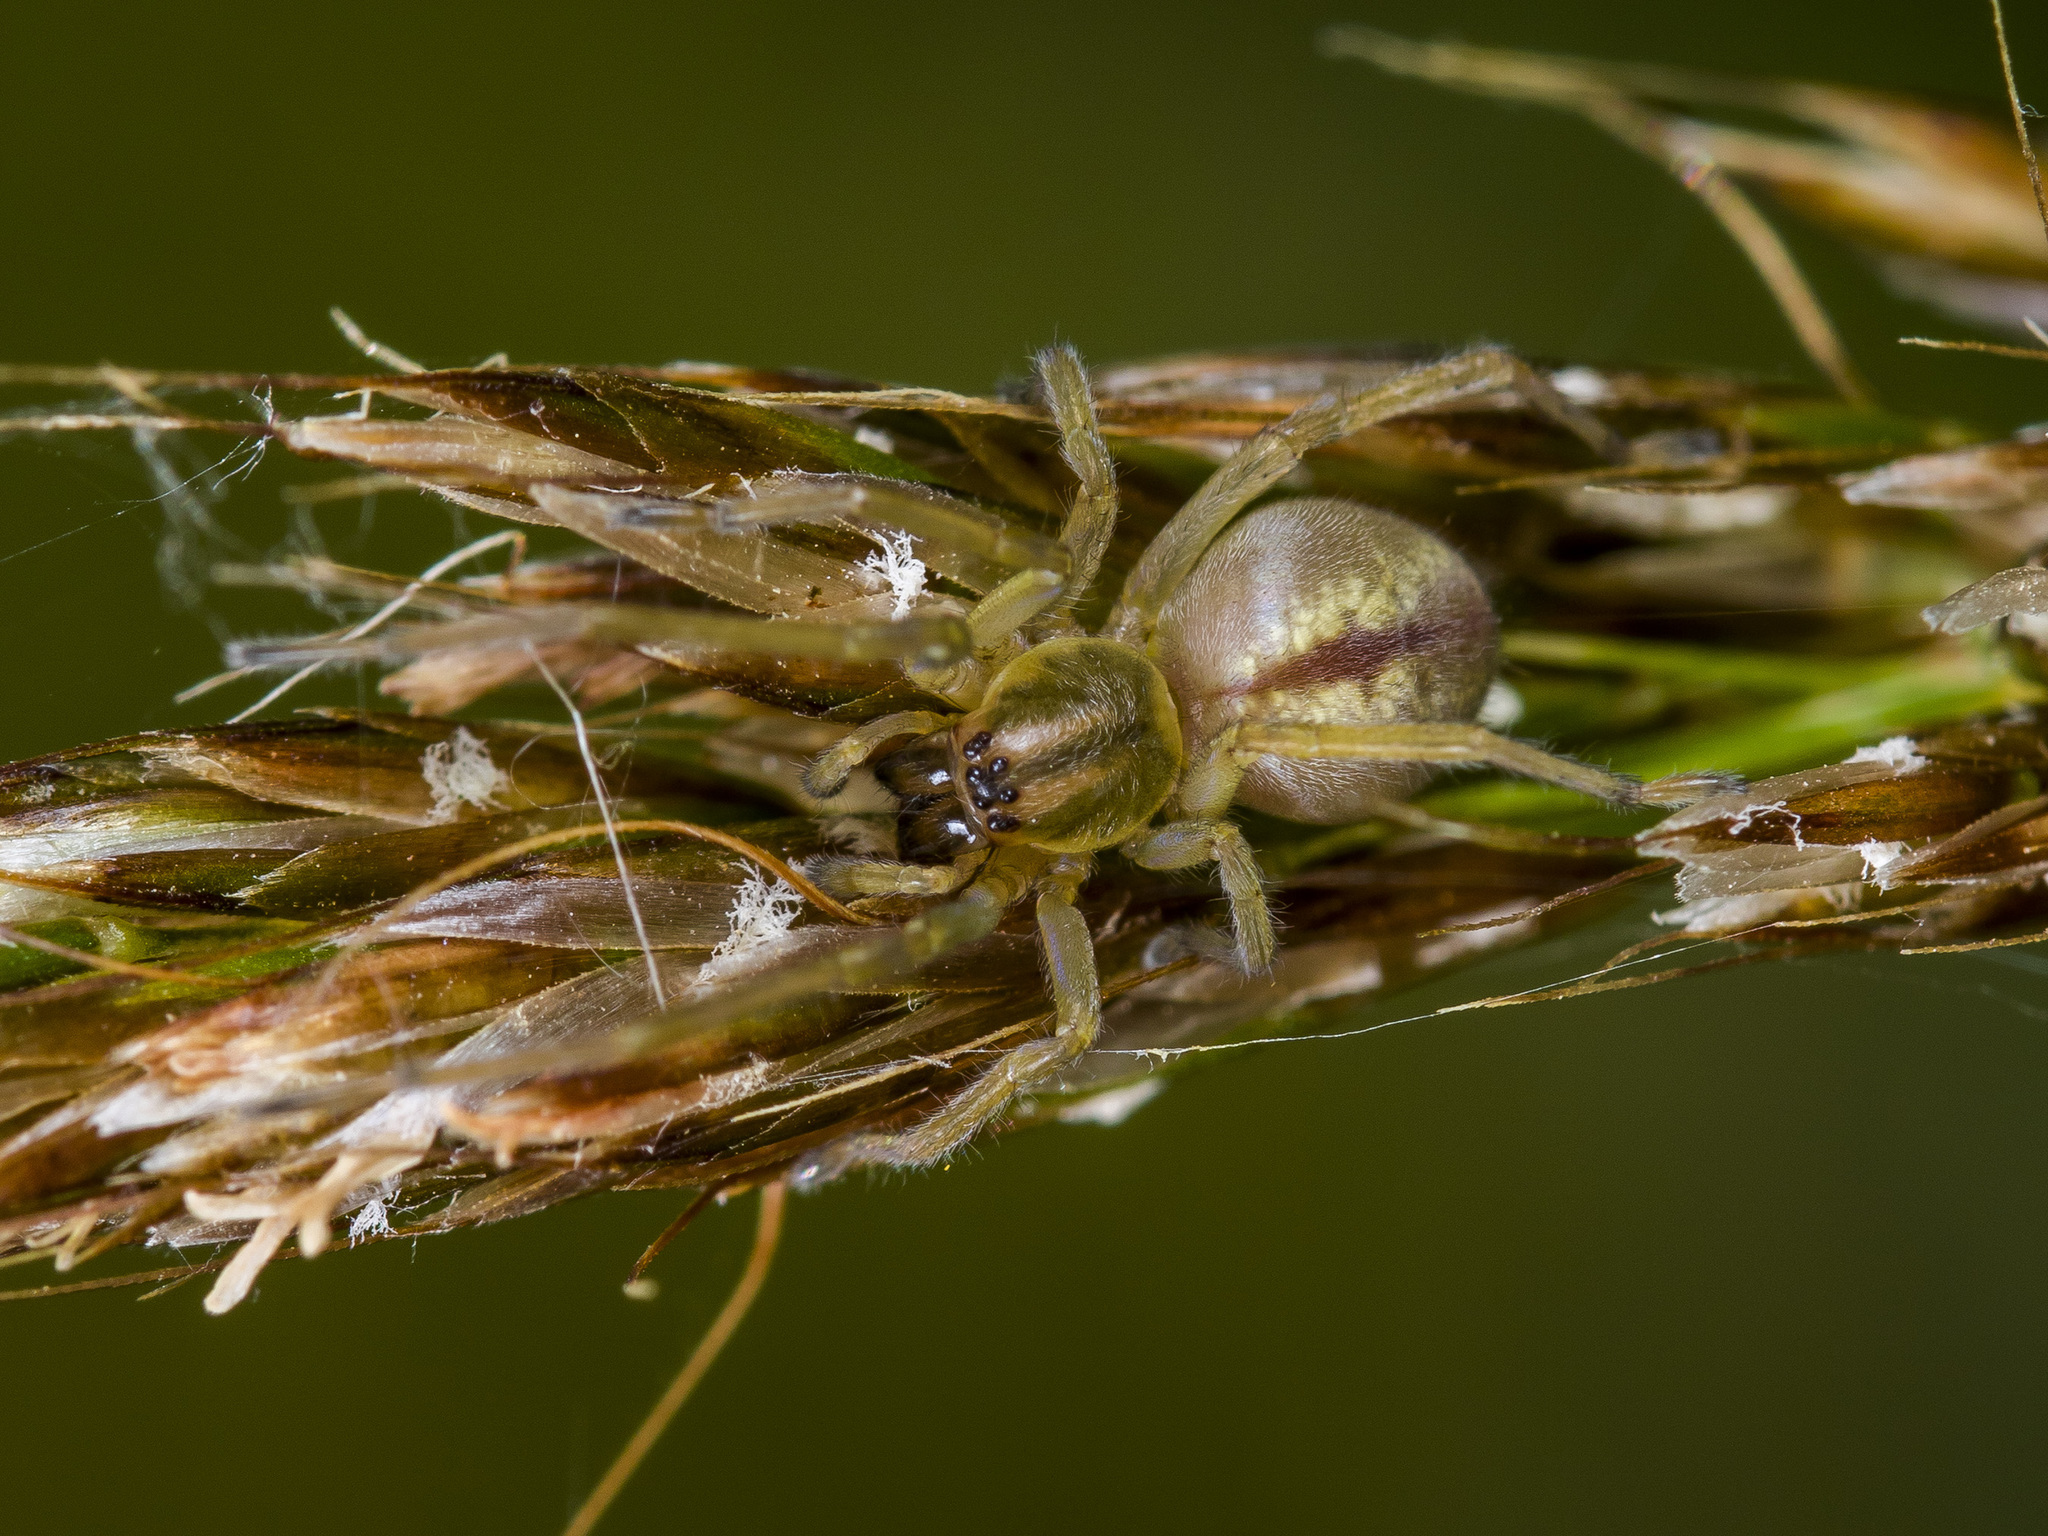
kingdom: Animalia
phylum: Arthropoda
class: Arachnida
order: Araneae
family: Cheiracanthiidae
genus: Cheiracanthium
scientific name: Cheiracanthium erraticum
